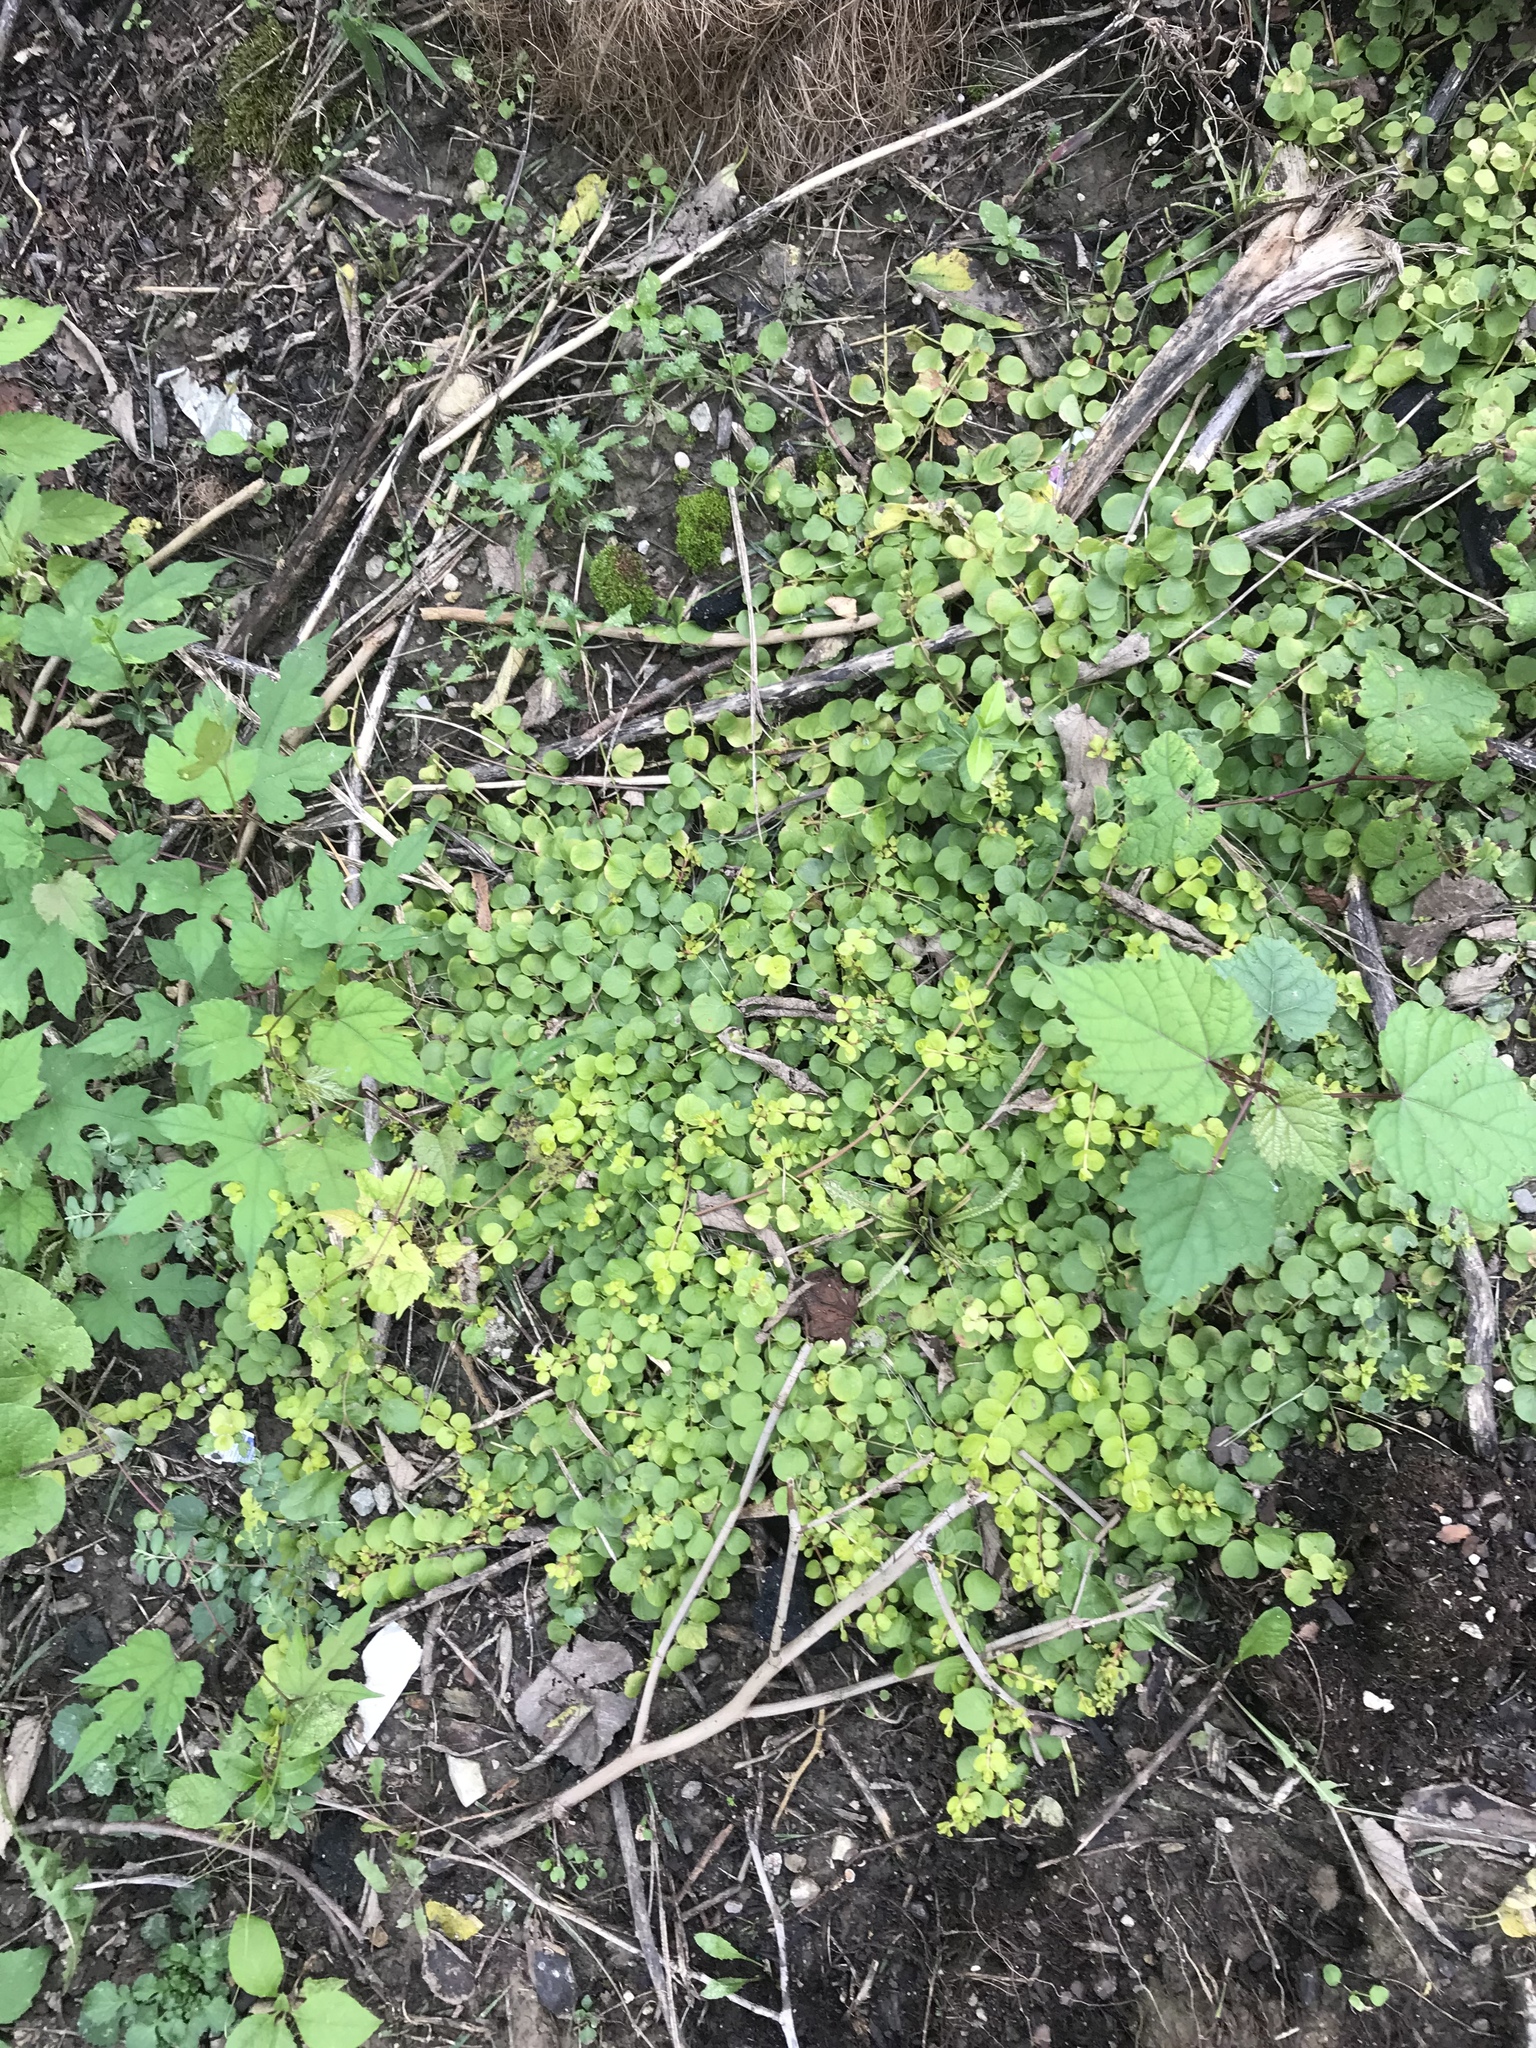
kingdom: Plantae
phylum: Tracheophyta
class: Magnoliopsida
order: Ericales
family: Primulaceae
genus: Lysimachia
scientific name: Lysimachia nummularia
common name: Moneywort
